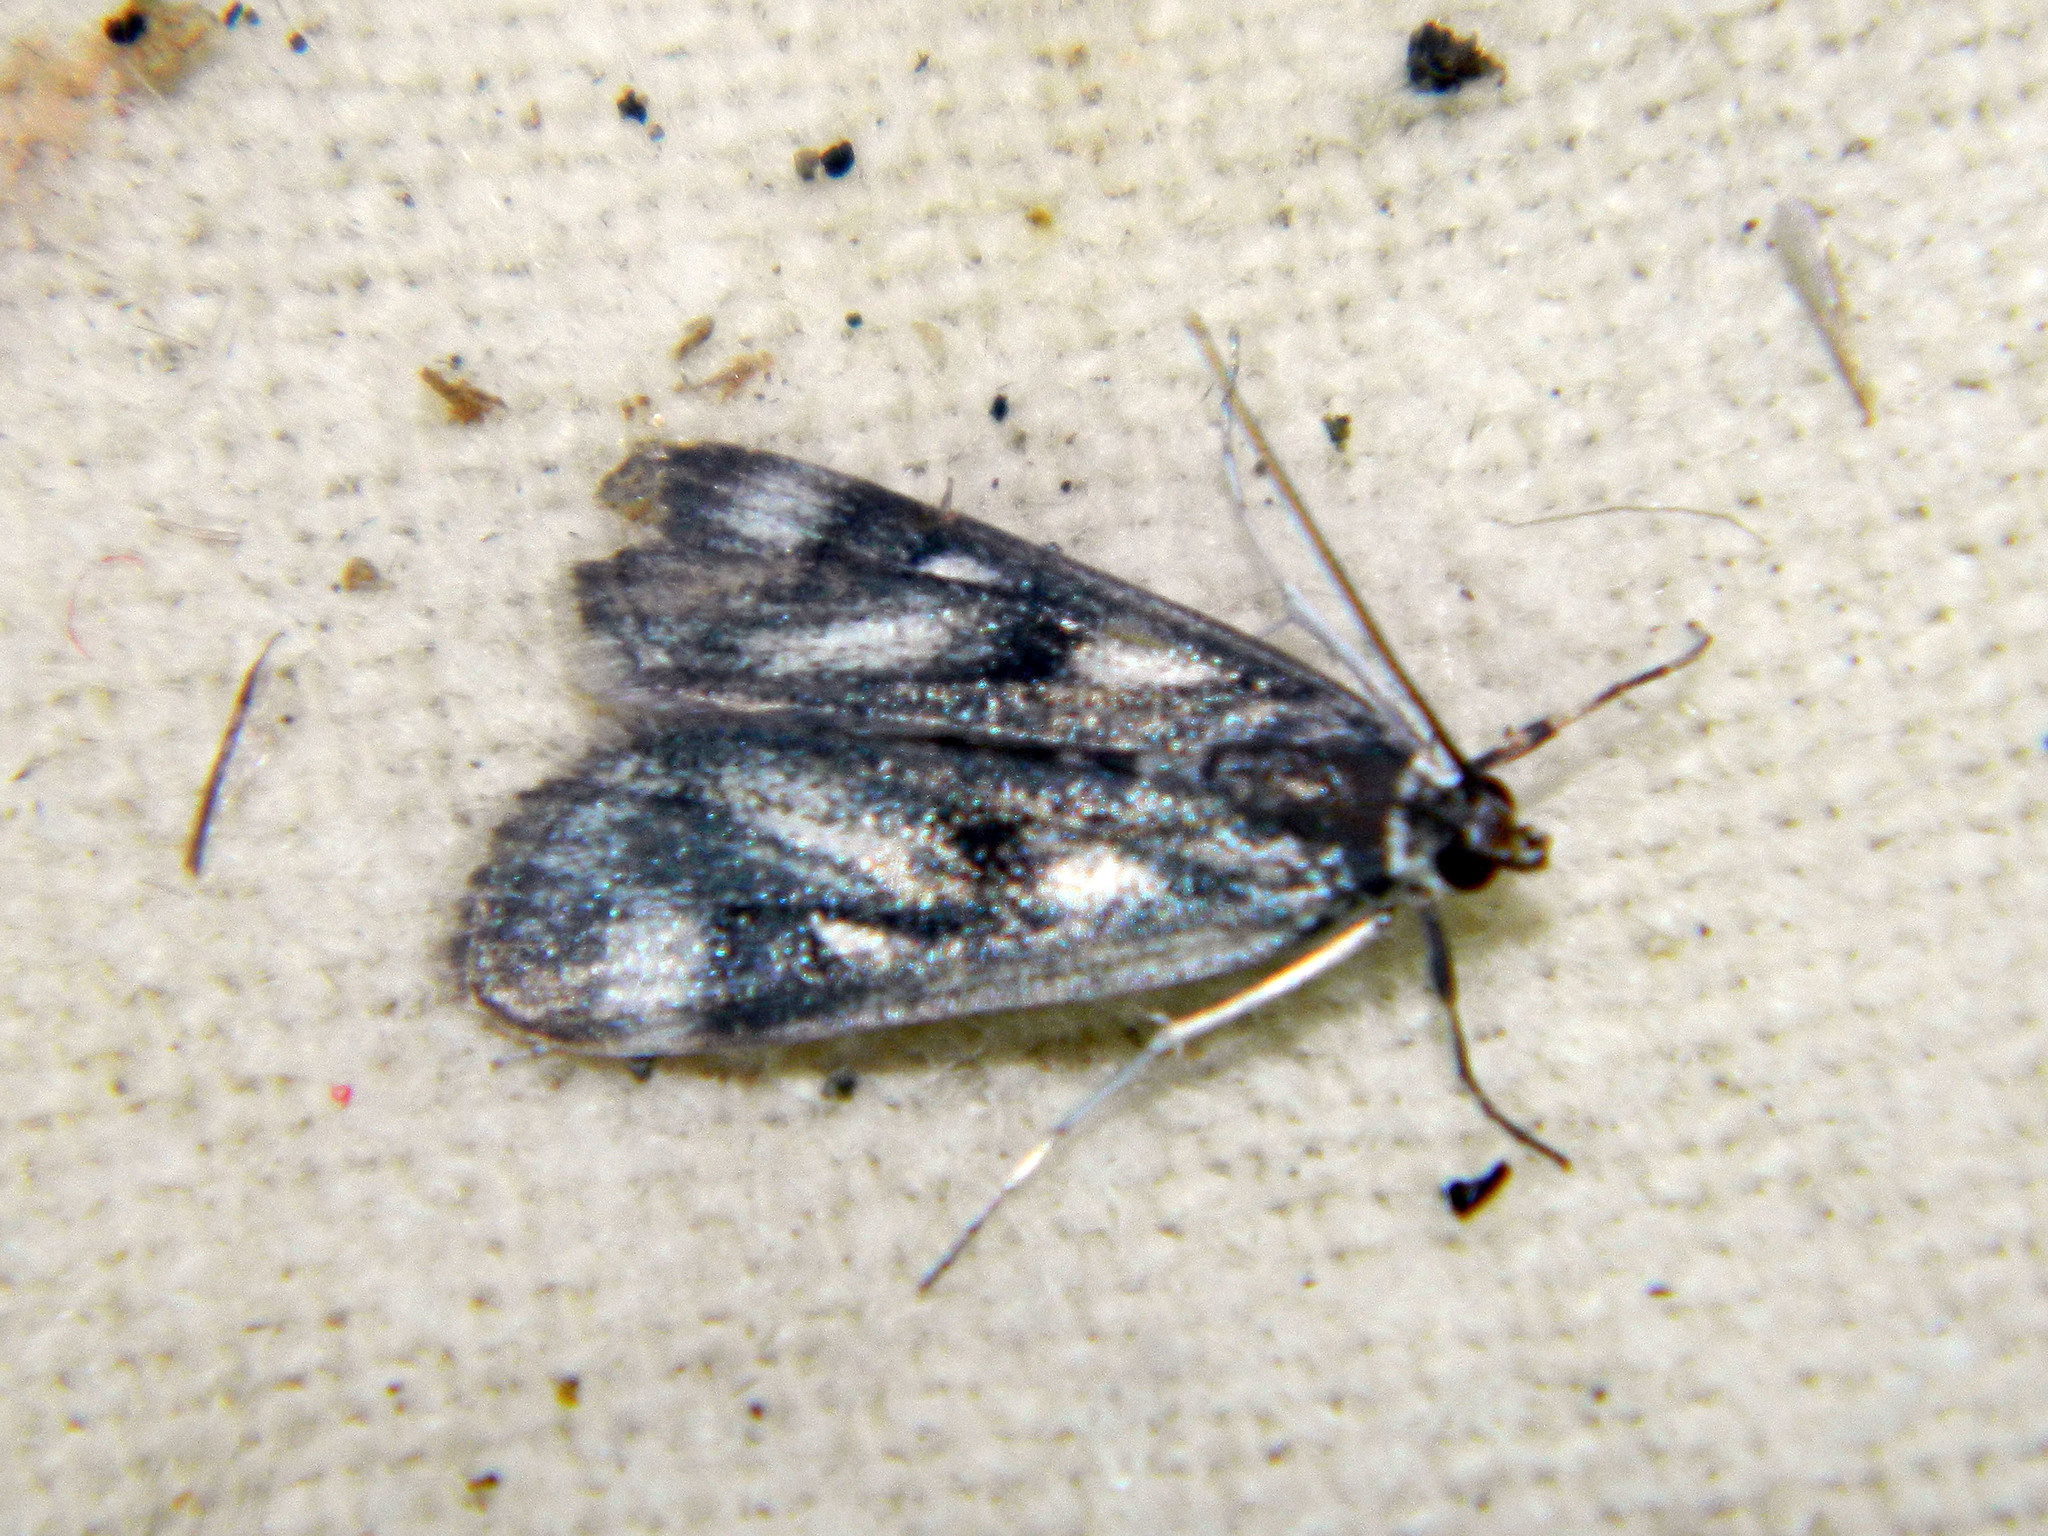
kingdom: Animalia
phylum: Arthropoda
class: Insecta
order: Lepidoptera
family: Crambidae
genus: Parapoynx
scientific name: Parapoynx maculalis
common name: Polymorphic pondweed moth
